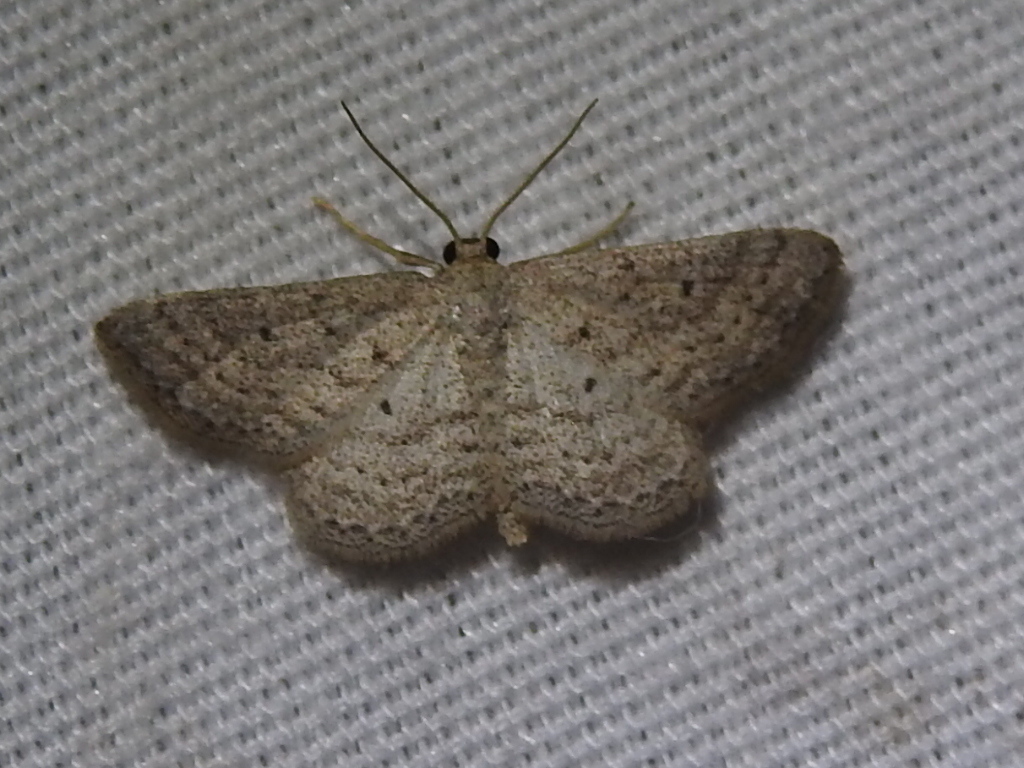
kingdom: Animalia
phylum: Arthropoda
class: Insecta
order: Lepidoptera
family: Geometridae
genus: Lobocleta
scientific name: Lobocleta ossularia
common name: Drab brown wave
